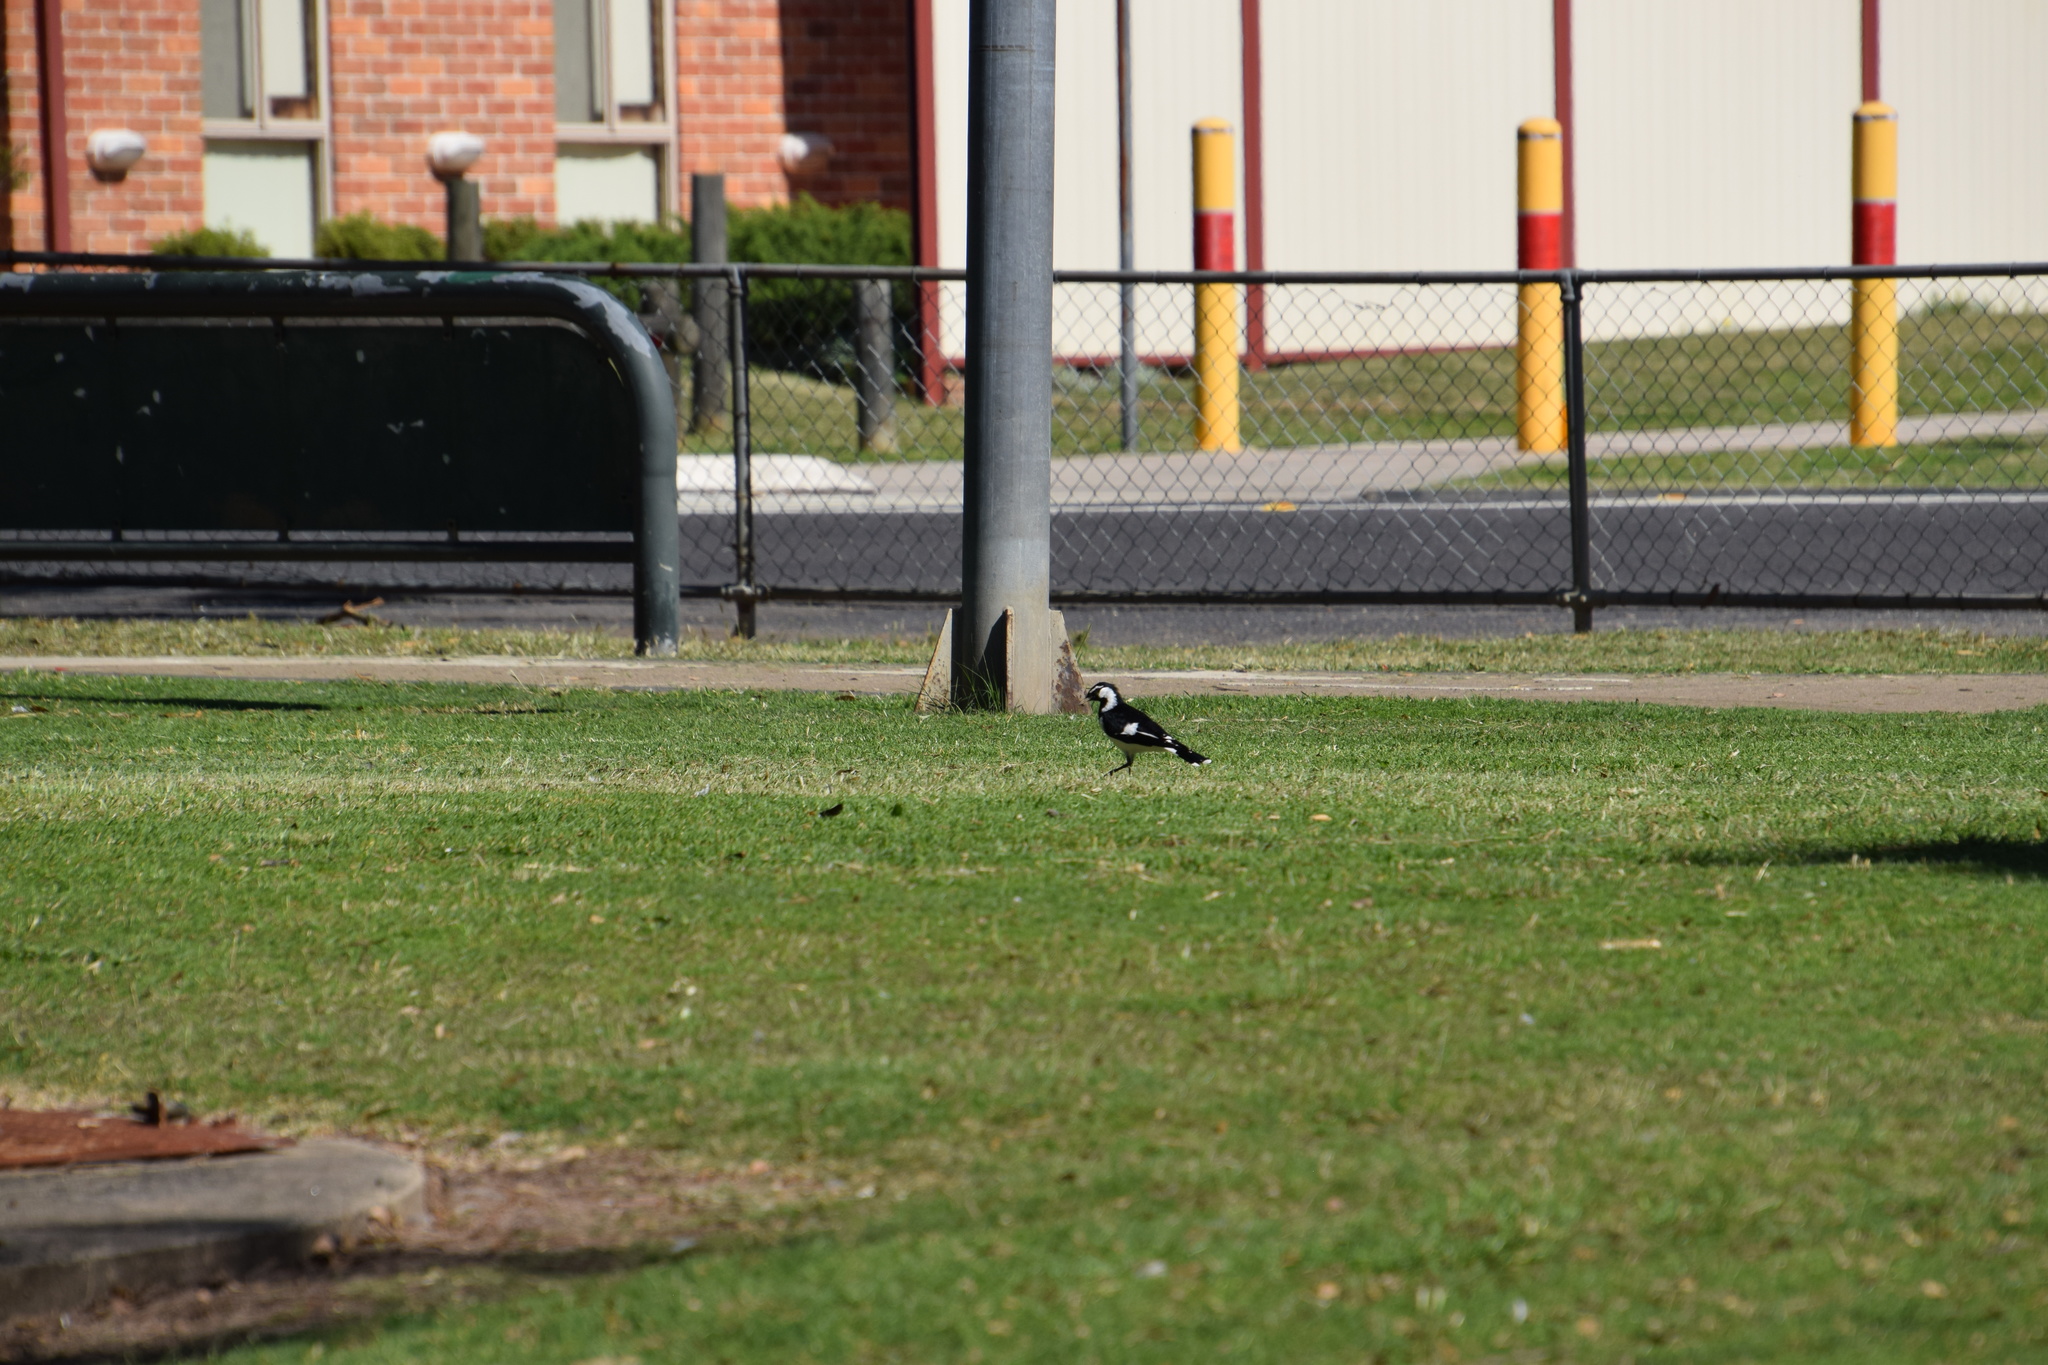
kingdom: Animalia
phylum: Chordata
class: Aves
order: Passeriformes
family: Monarchidae
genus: Grallina
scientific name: Grallina cyanoleuca
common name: Magpie-lark
